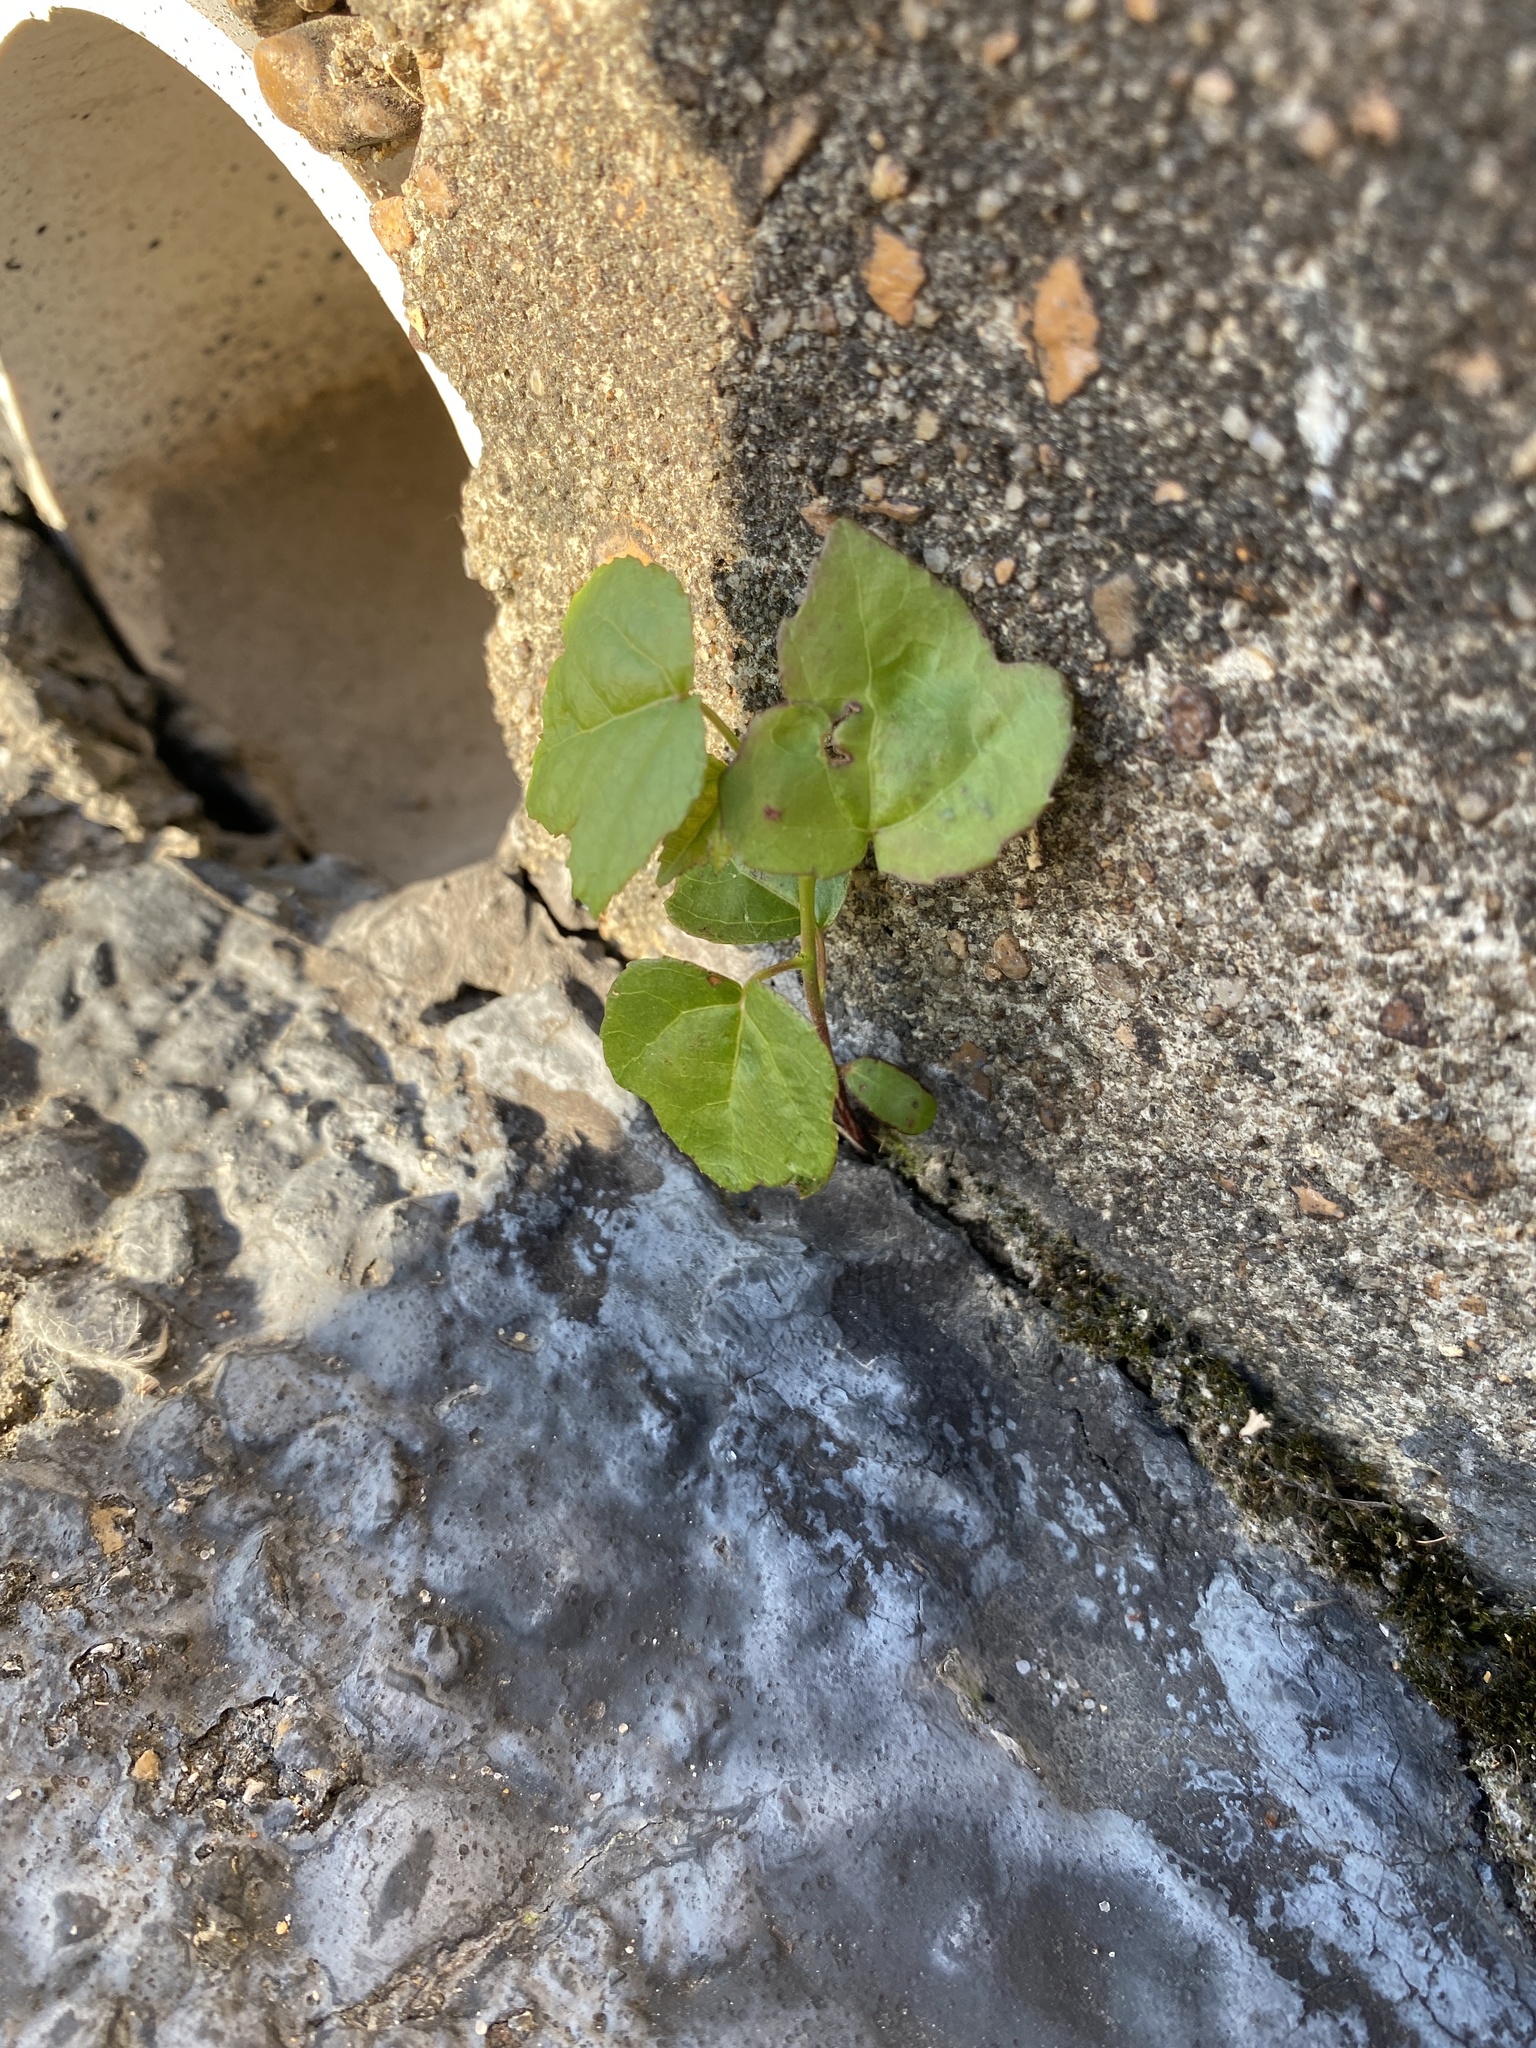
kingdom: Plantae
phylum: Tracheophyta
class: Magnoliopsida
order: Saxifragales
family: Altingiaceae
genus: Liquidambar
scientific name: Liquidambar styraciflua
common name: Sweet gum
